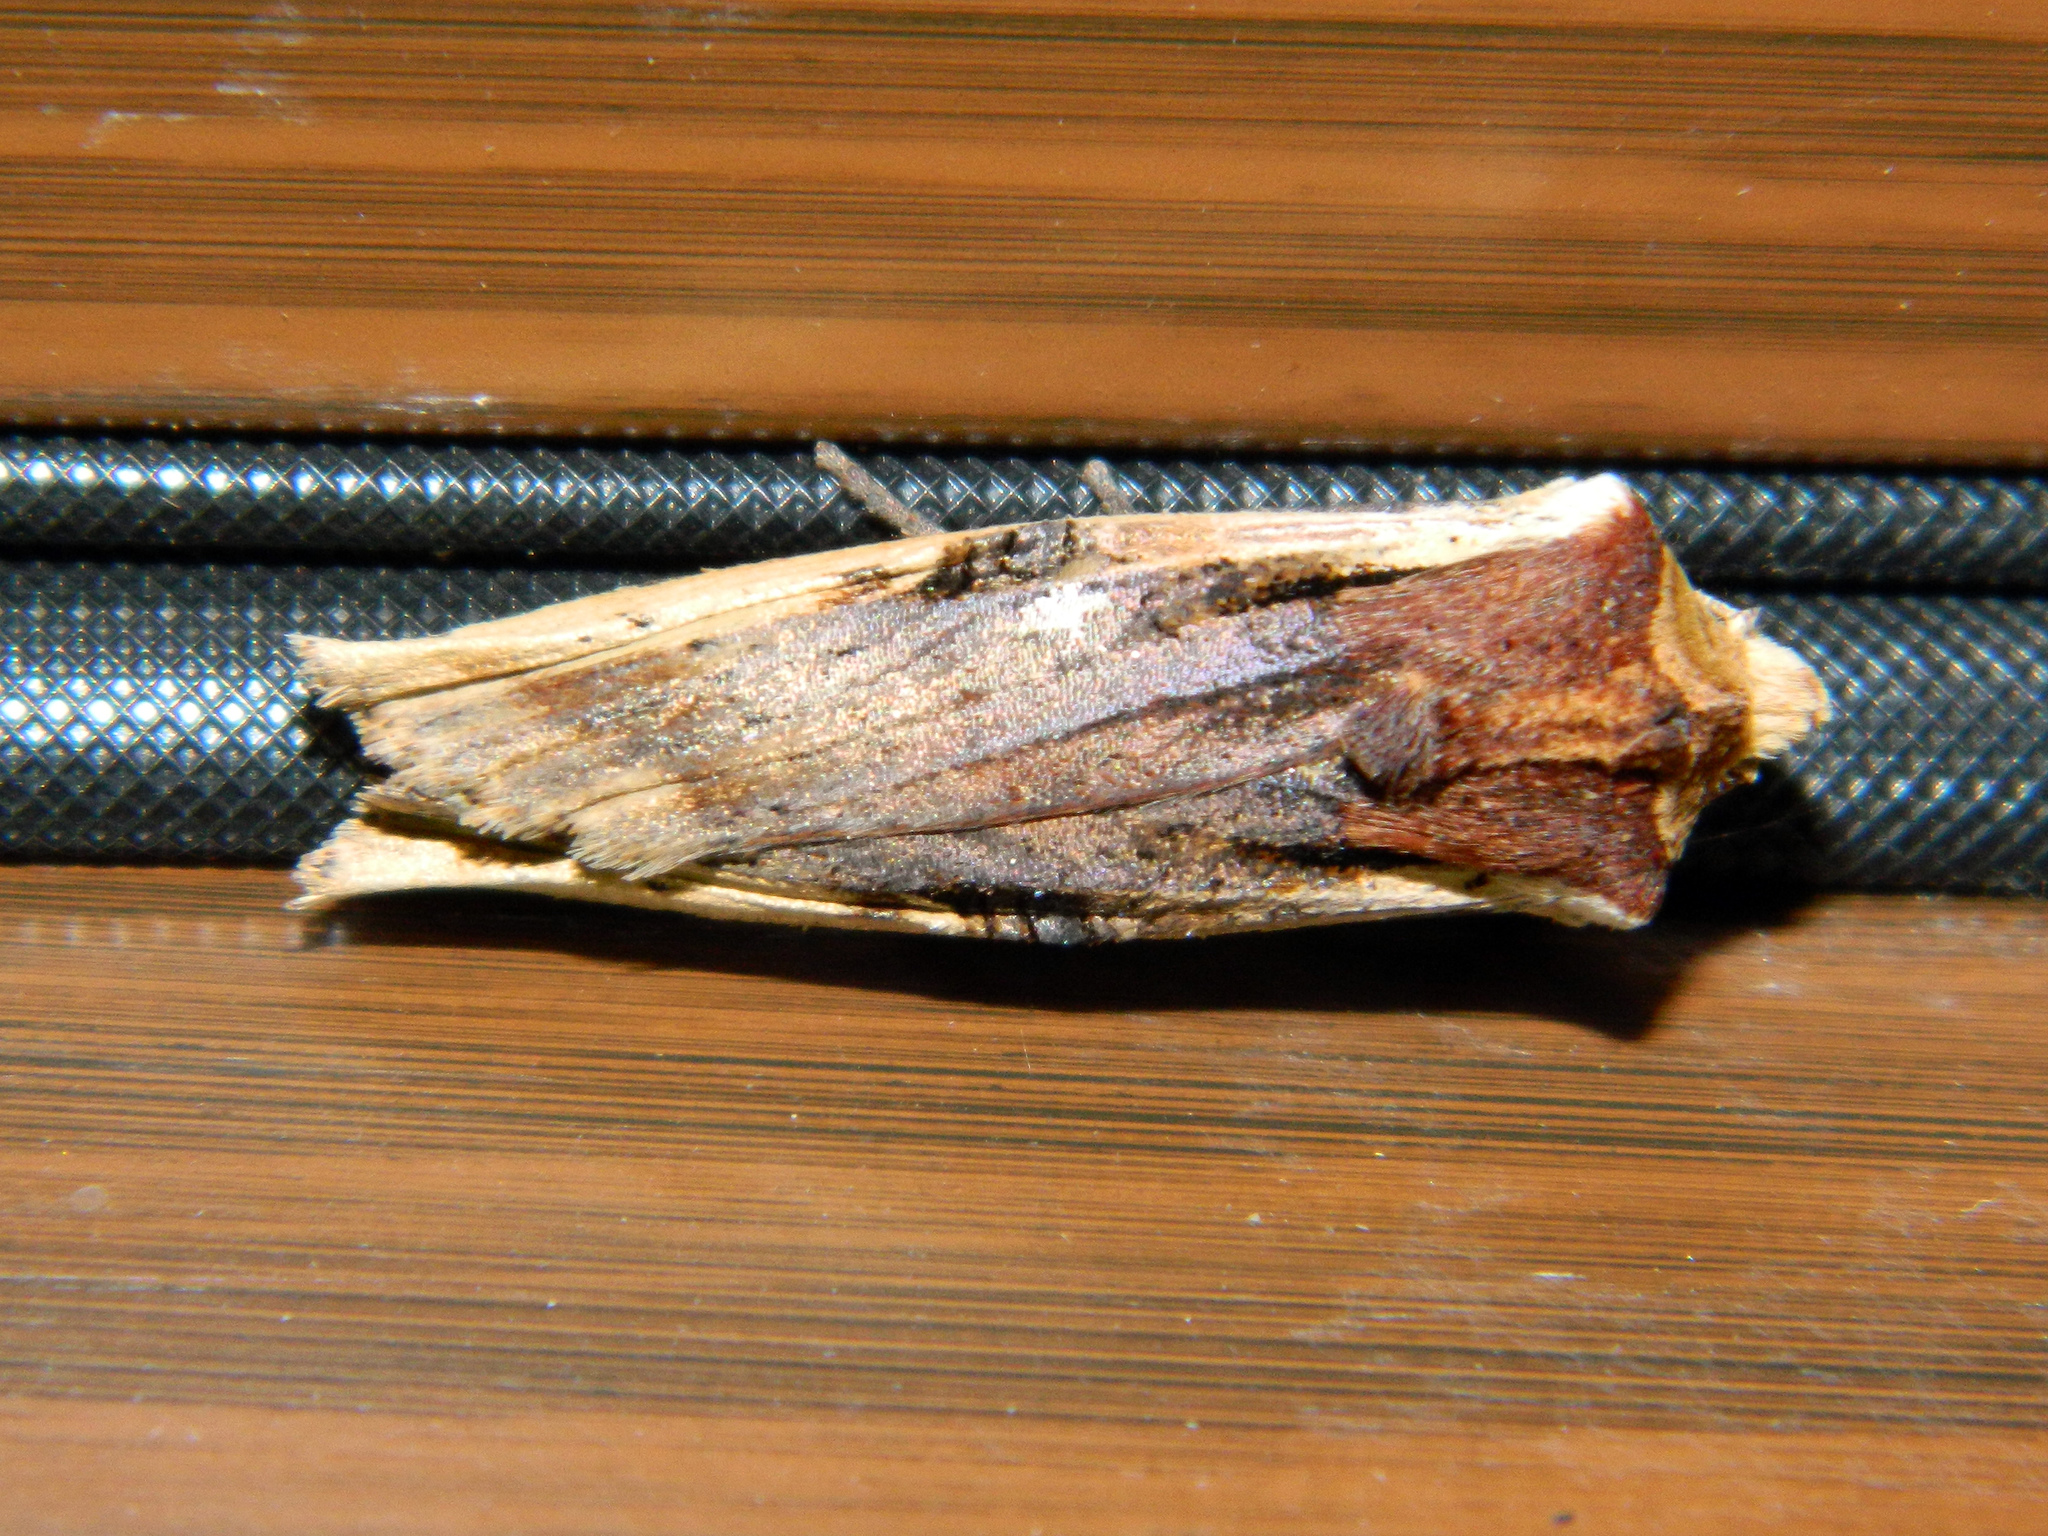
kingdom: Animalia
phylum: Arthropoda
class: Insecta
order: Lepidoptera
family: Noctuidae
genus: Xylena
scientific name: Xylena curvimacula
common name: Dot-and-dash swordgrass moth
